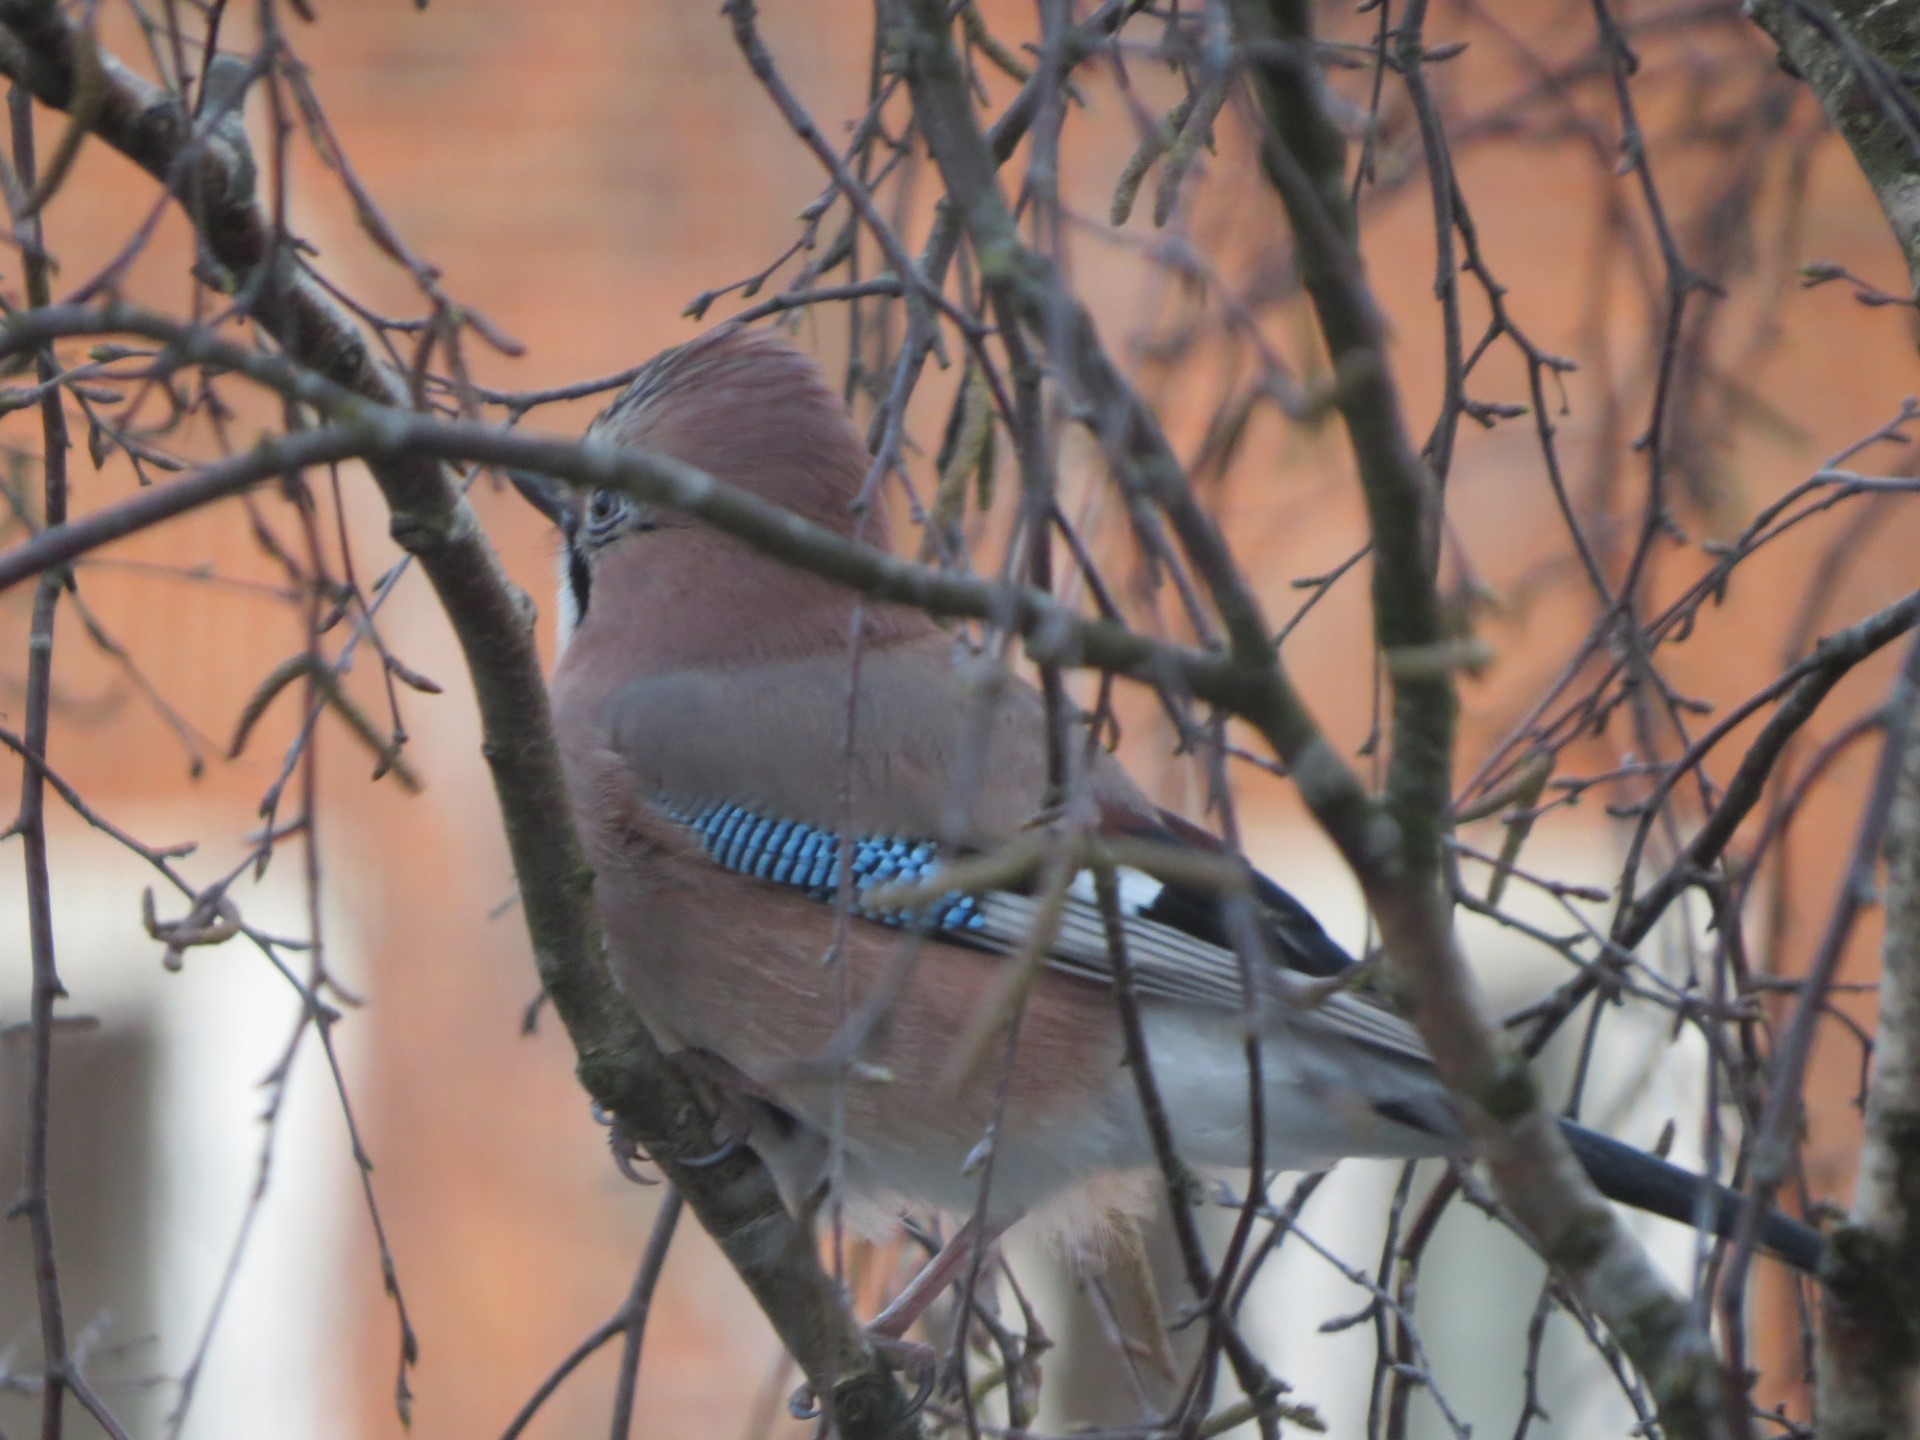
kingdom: Animalia
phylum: Chordata
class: Aves
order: Passeriformes
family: Corvidae
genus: Garrulus
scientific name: Garrulus glandarius
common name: Eurasian jay
